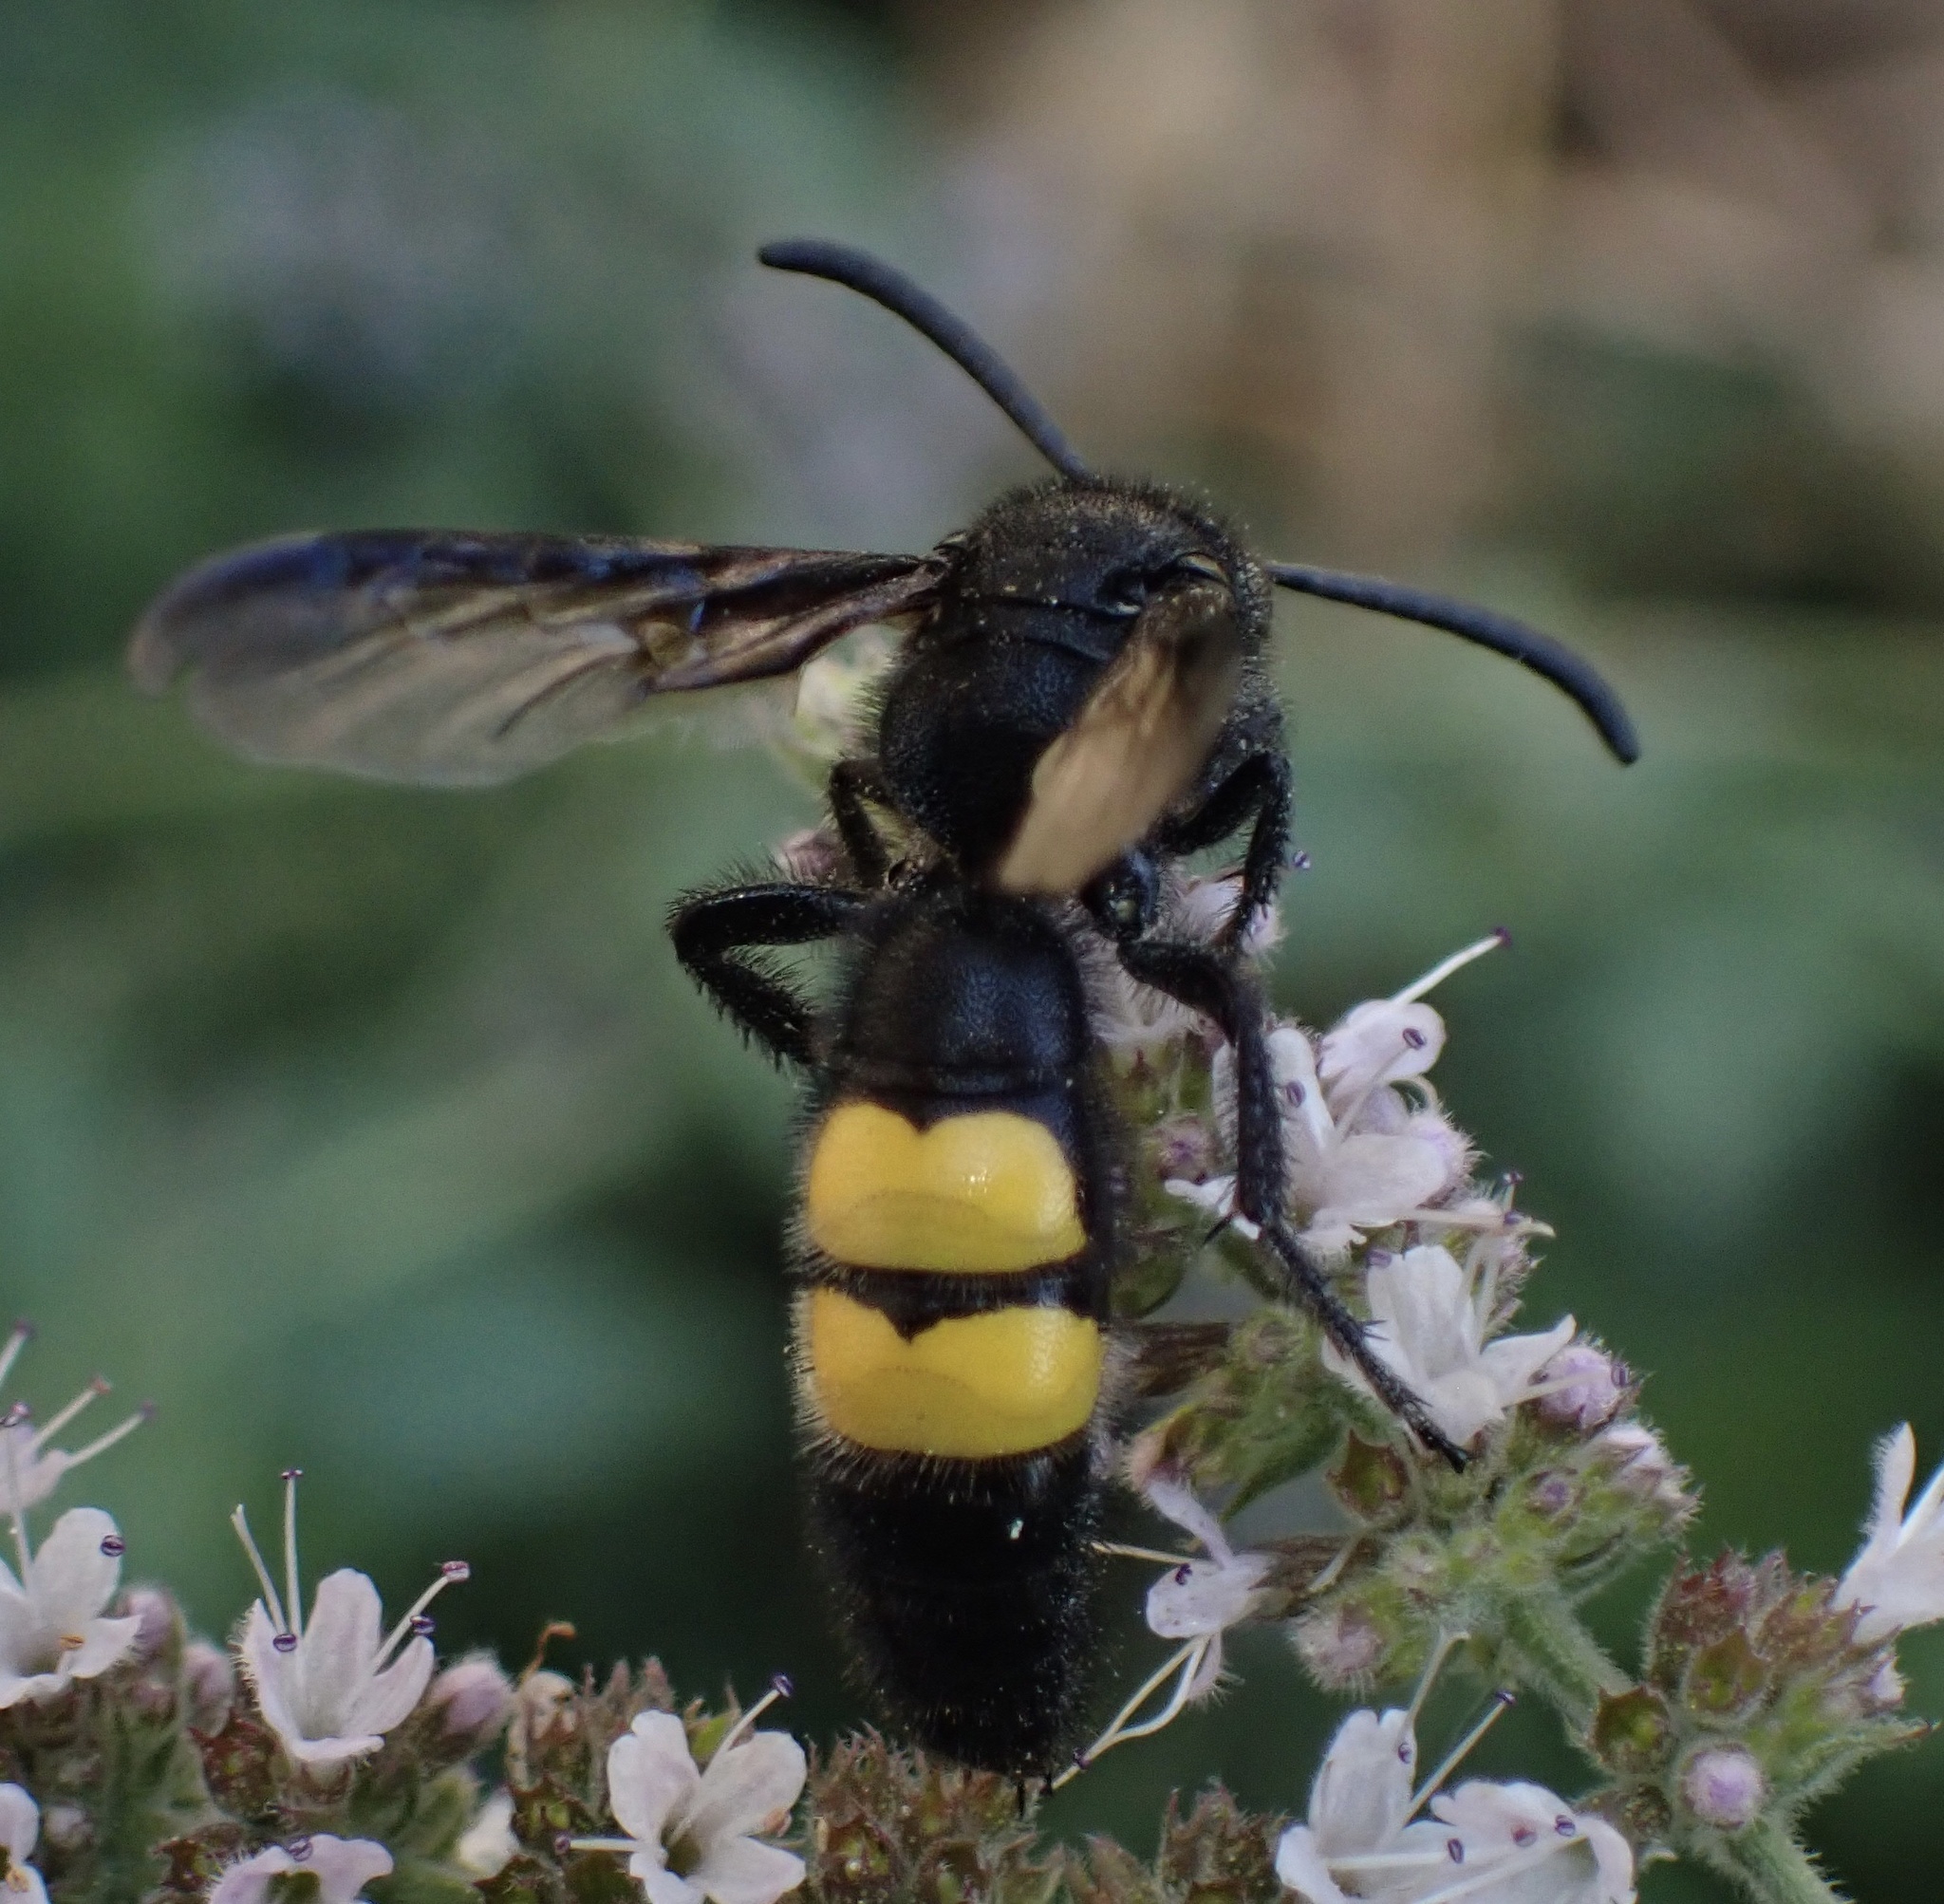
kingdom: Animalia
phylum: Arthropoda
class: Insecta
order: Hymenoptera
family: Scoliidae
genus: Scolia
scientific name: Scolia hirta
